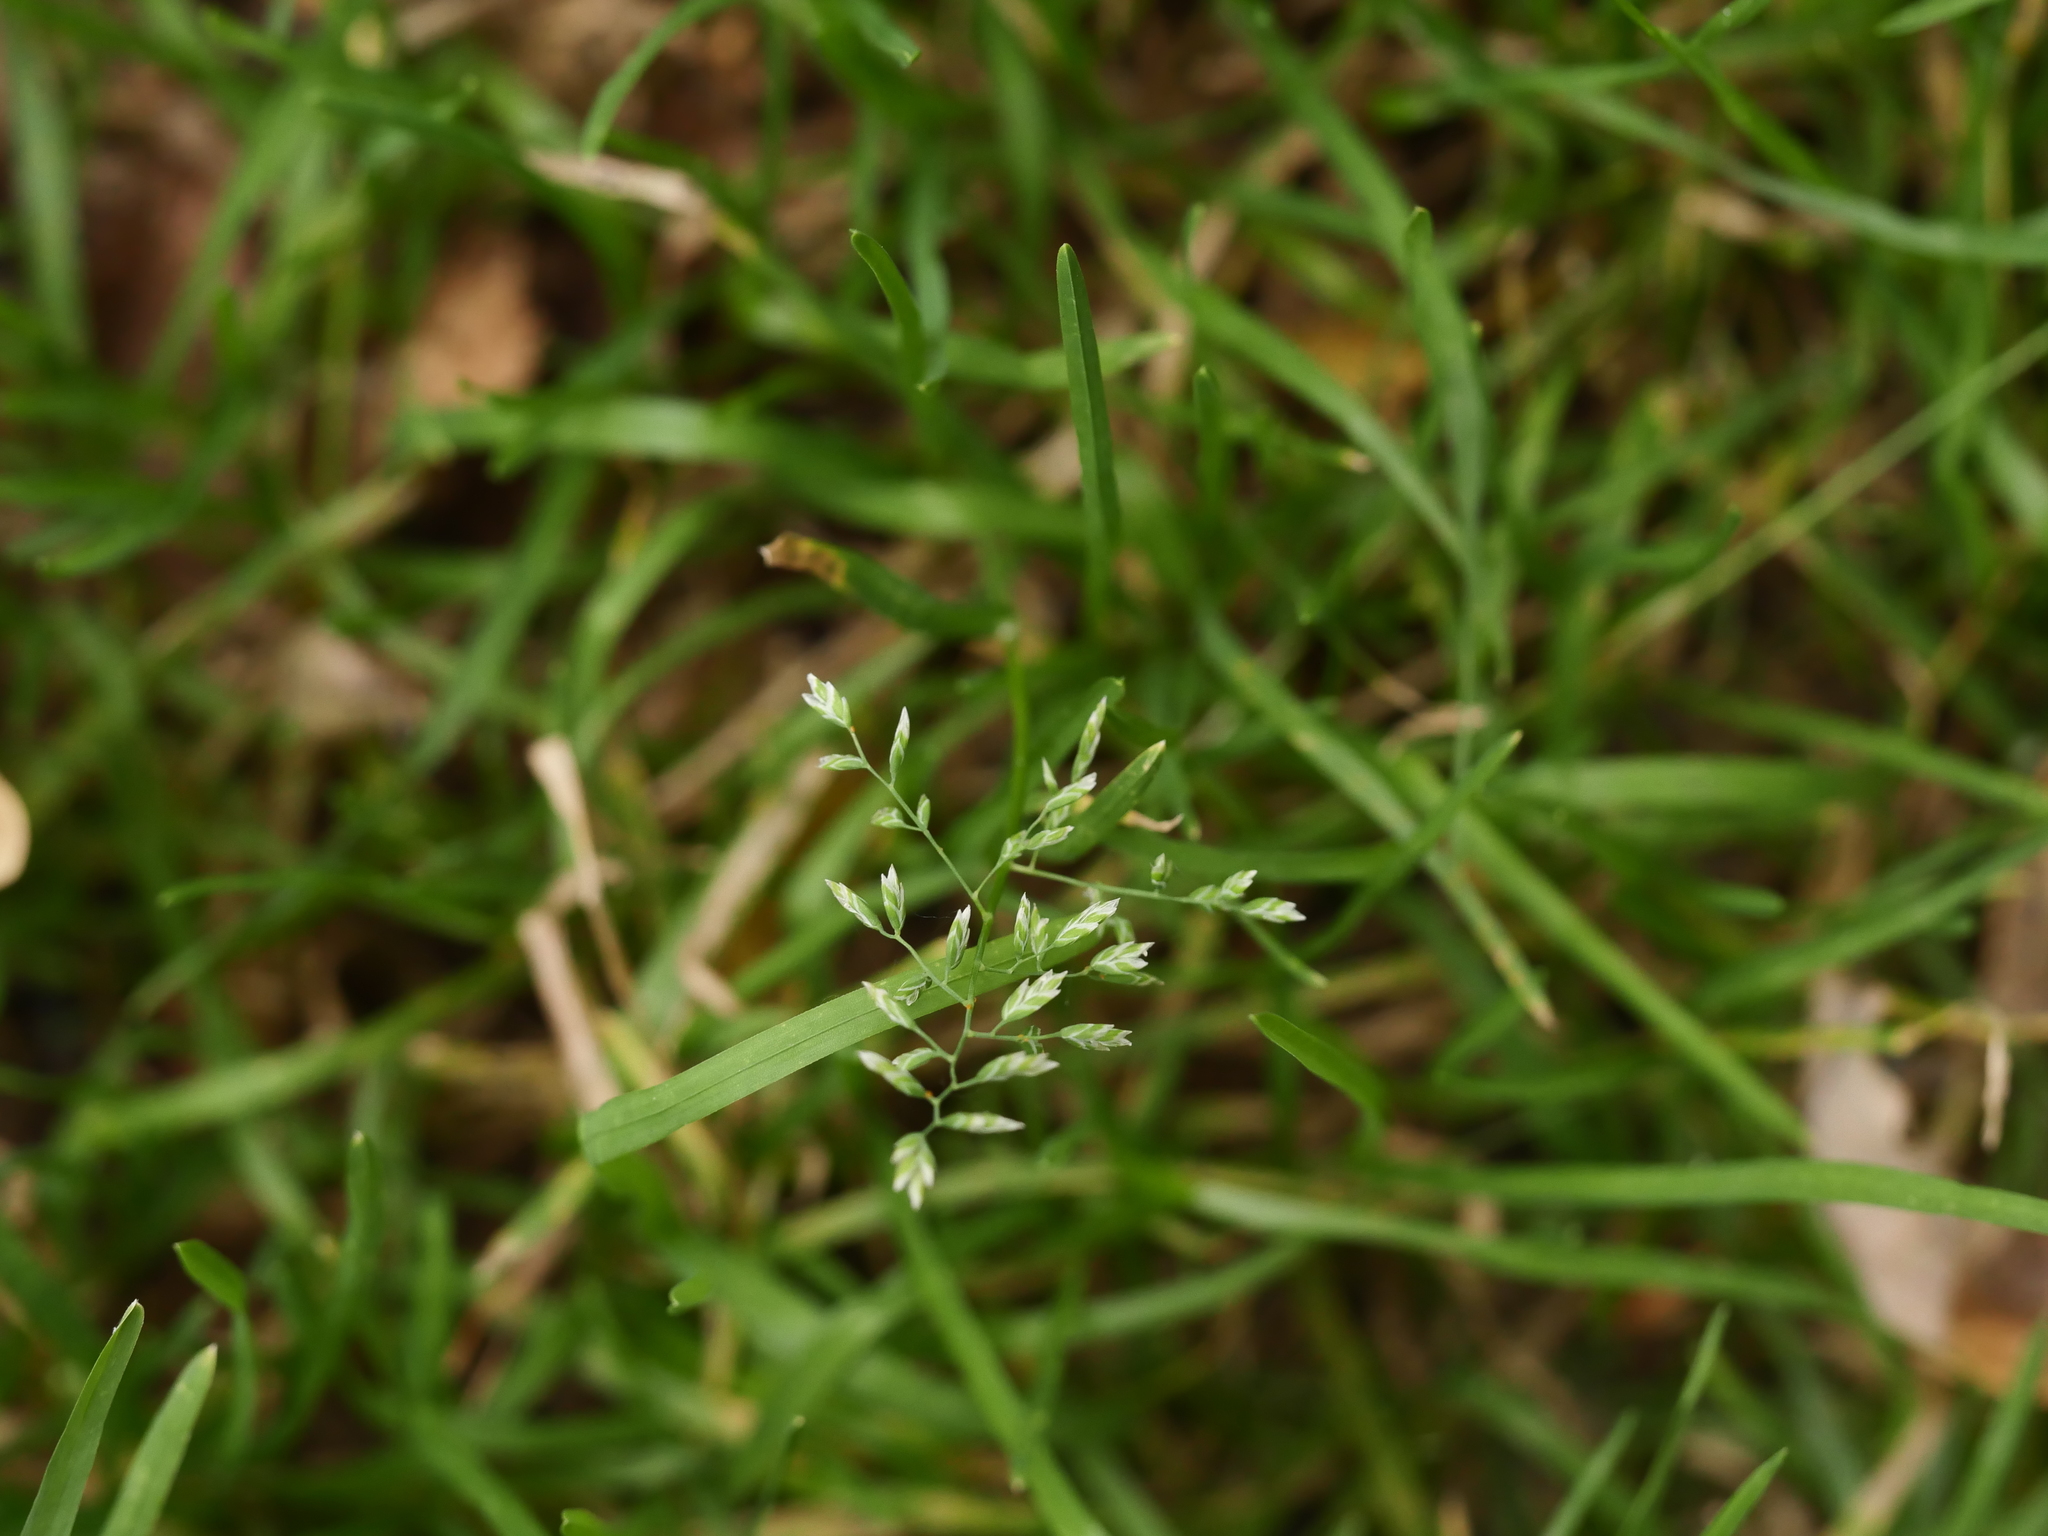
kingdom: Plantae
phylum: Tracheophyta
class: Liliopsida
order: Poales
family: Poaceae
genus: Poa
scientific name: Poa annua
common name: Annual bluegrass
